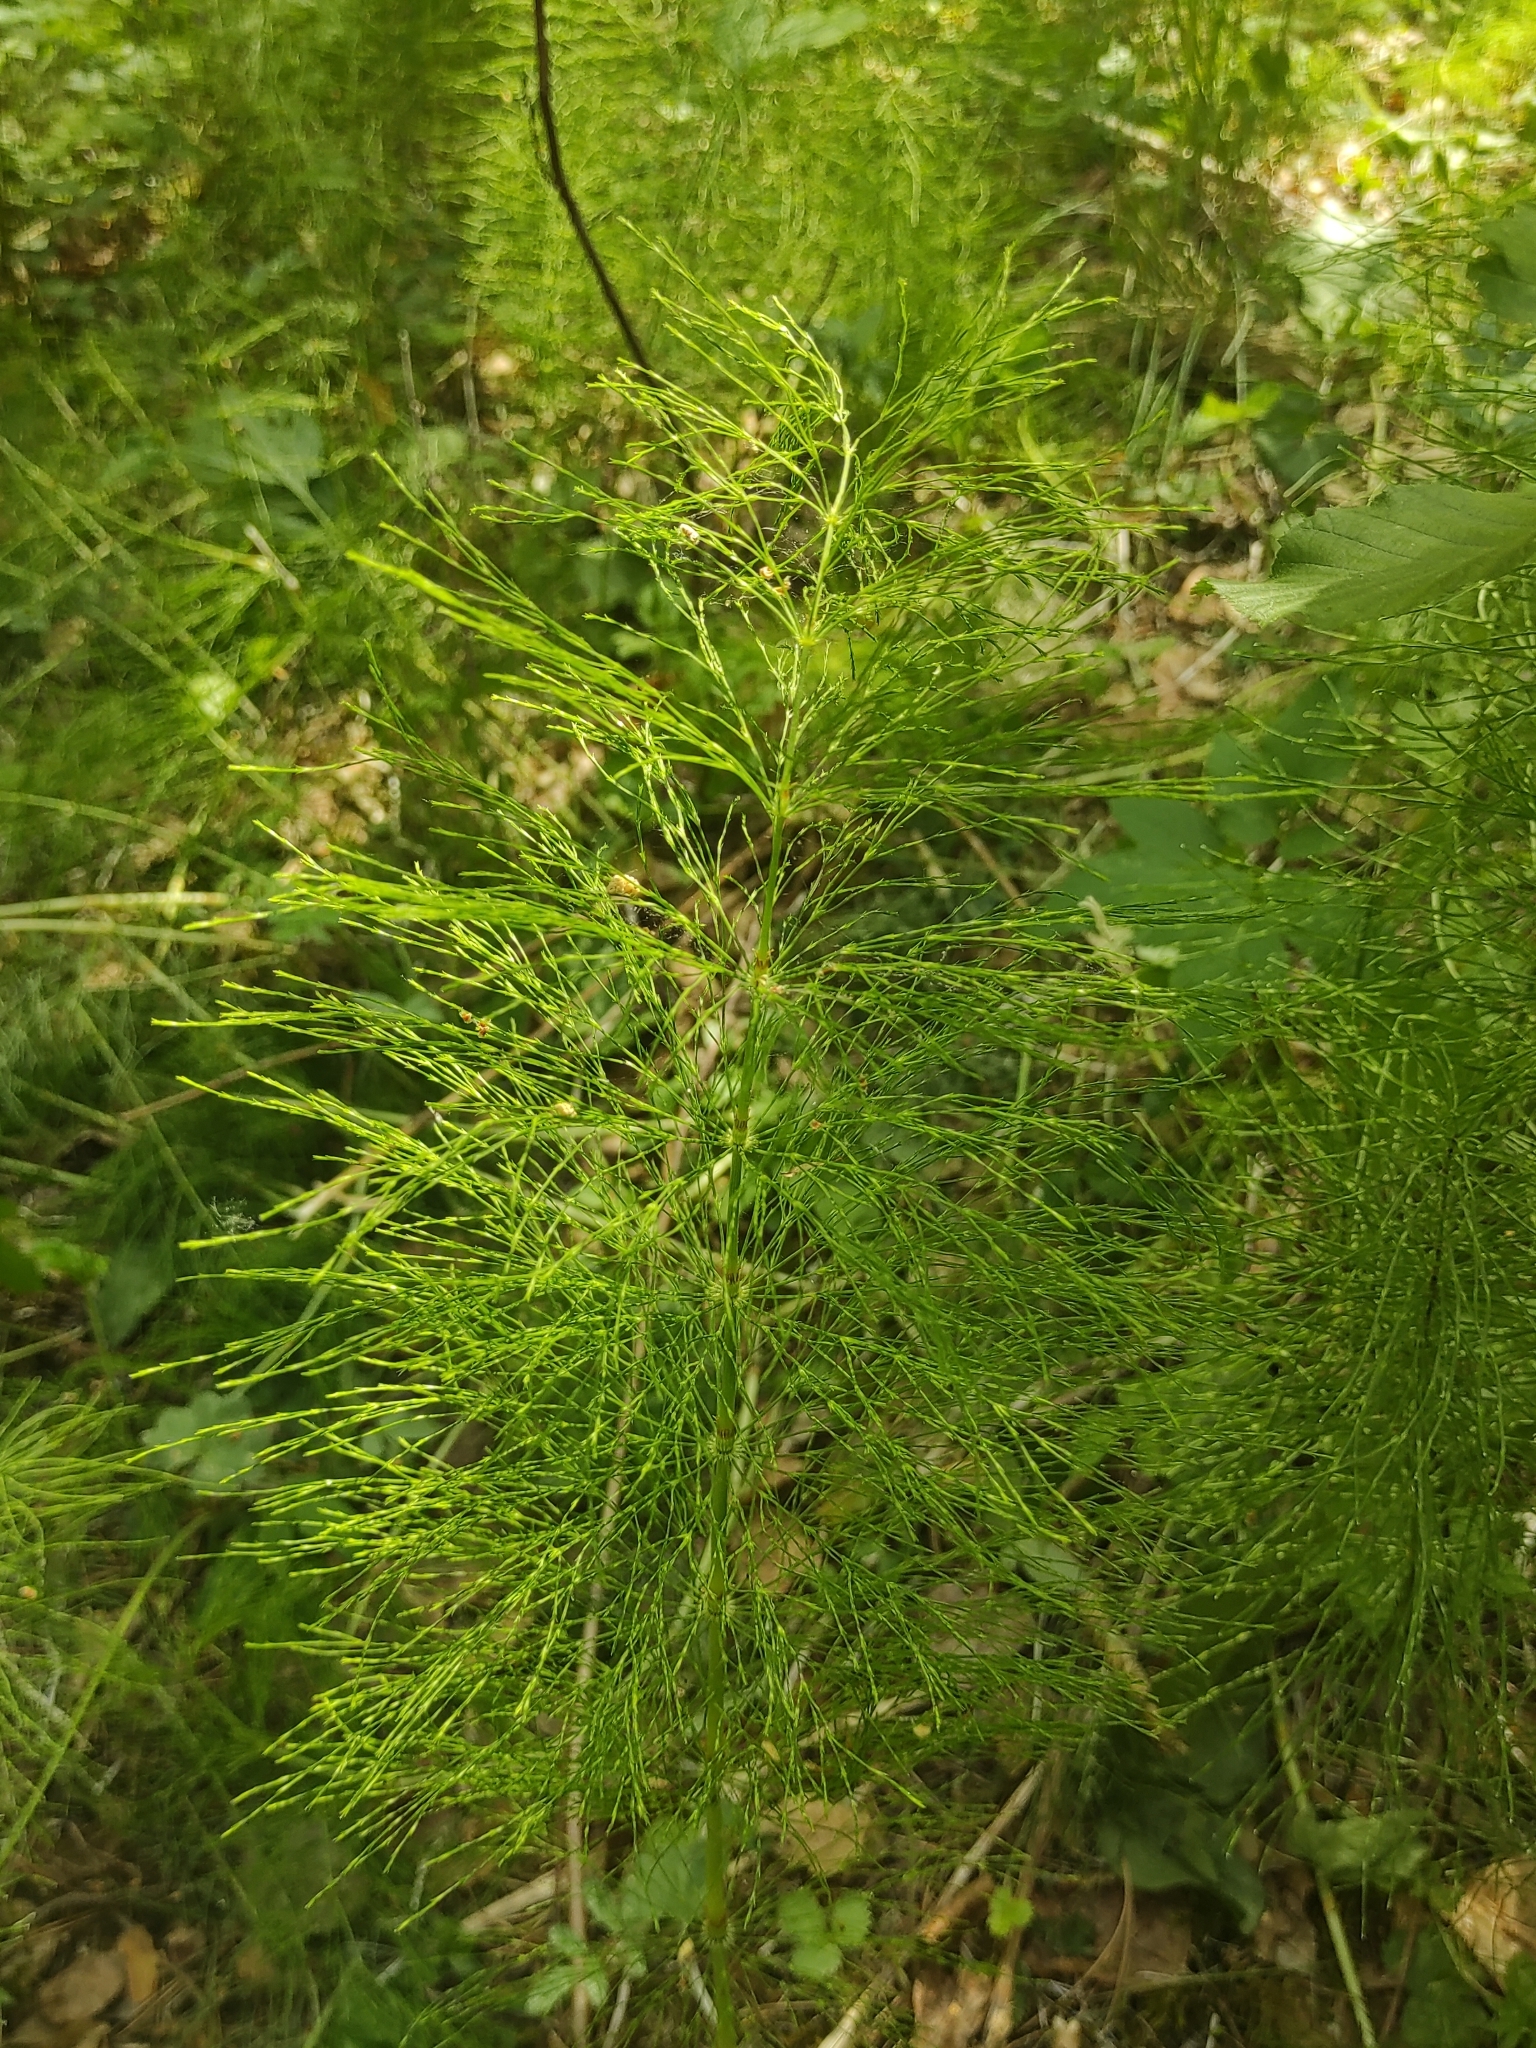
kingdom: Plantae
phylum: Tracheophyta
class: Polypodiopsida
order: Equisetales
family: Equisetaceae
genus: Equisetum
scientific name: Equisetum sylvaticum
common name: Wood horsetail
